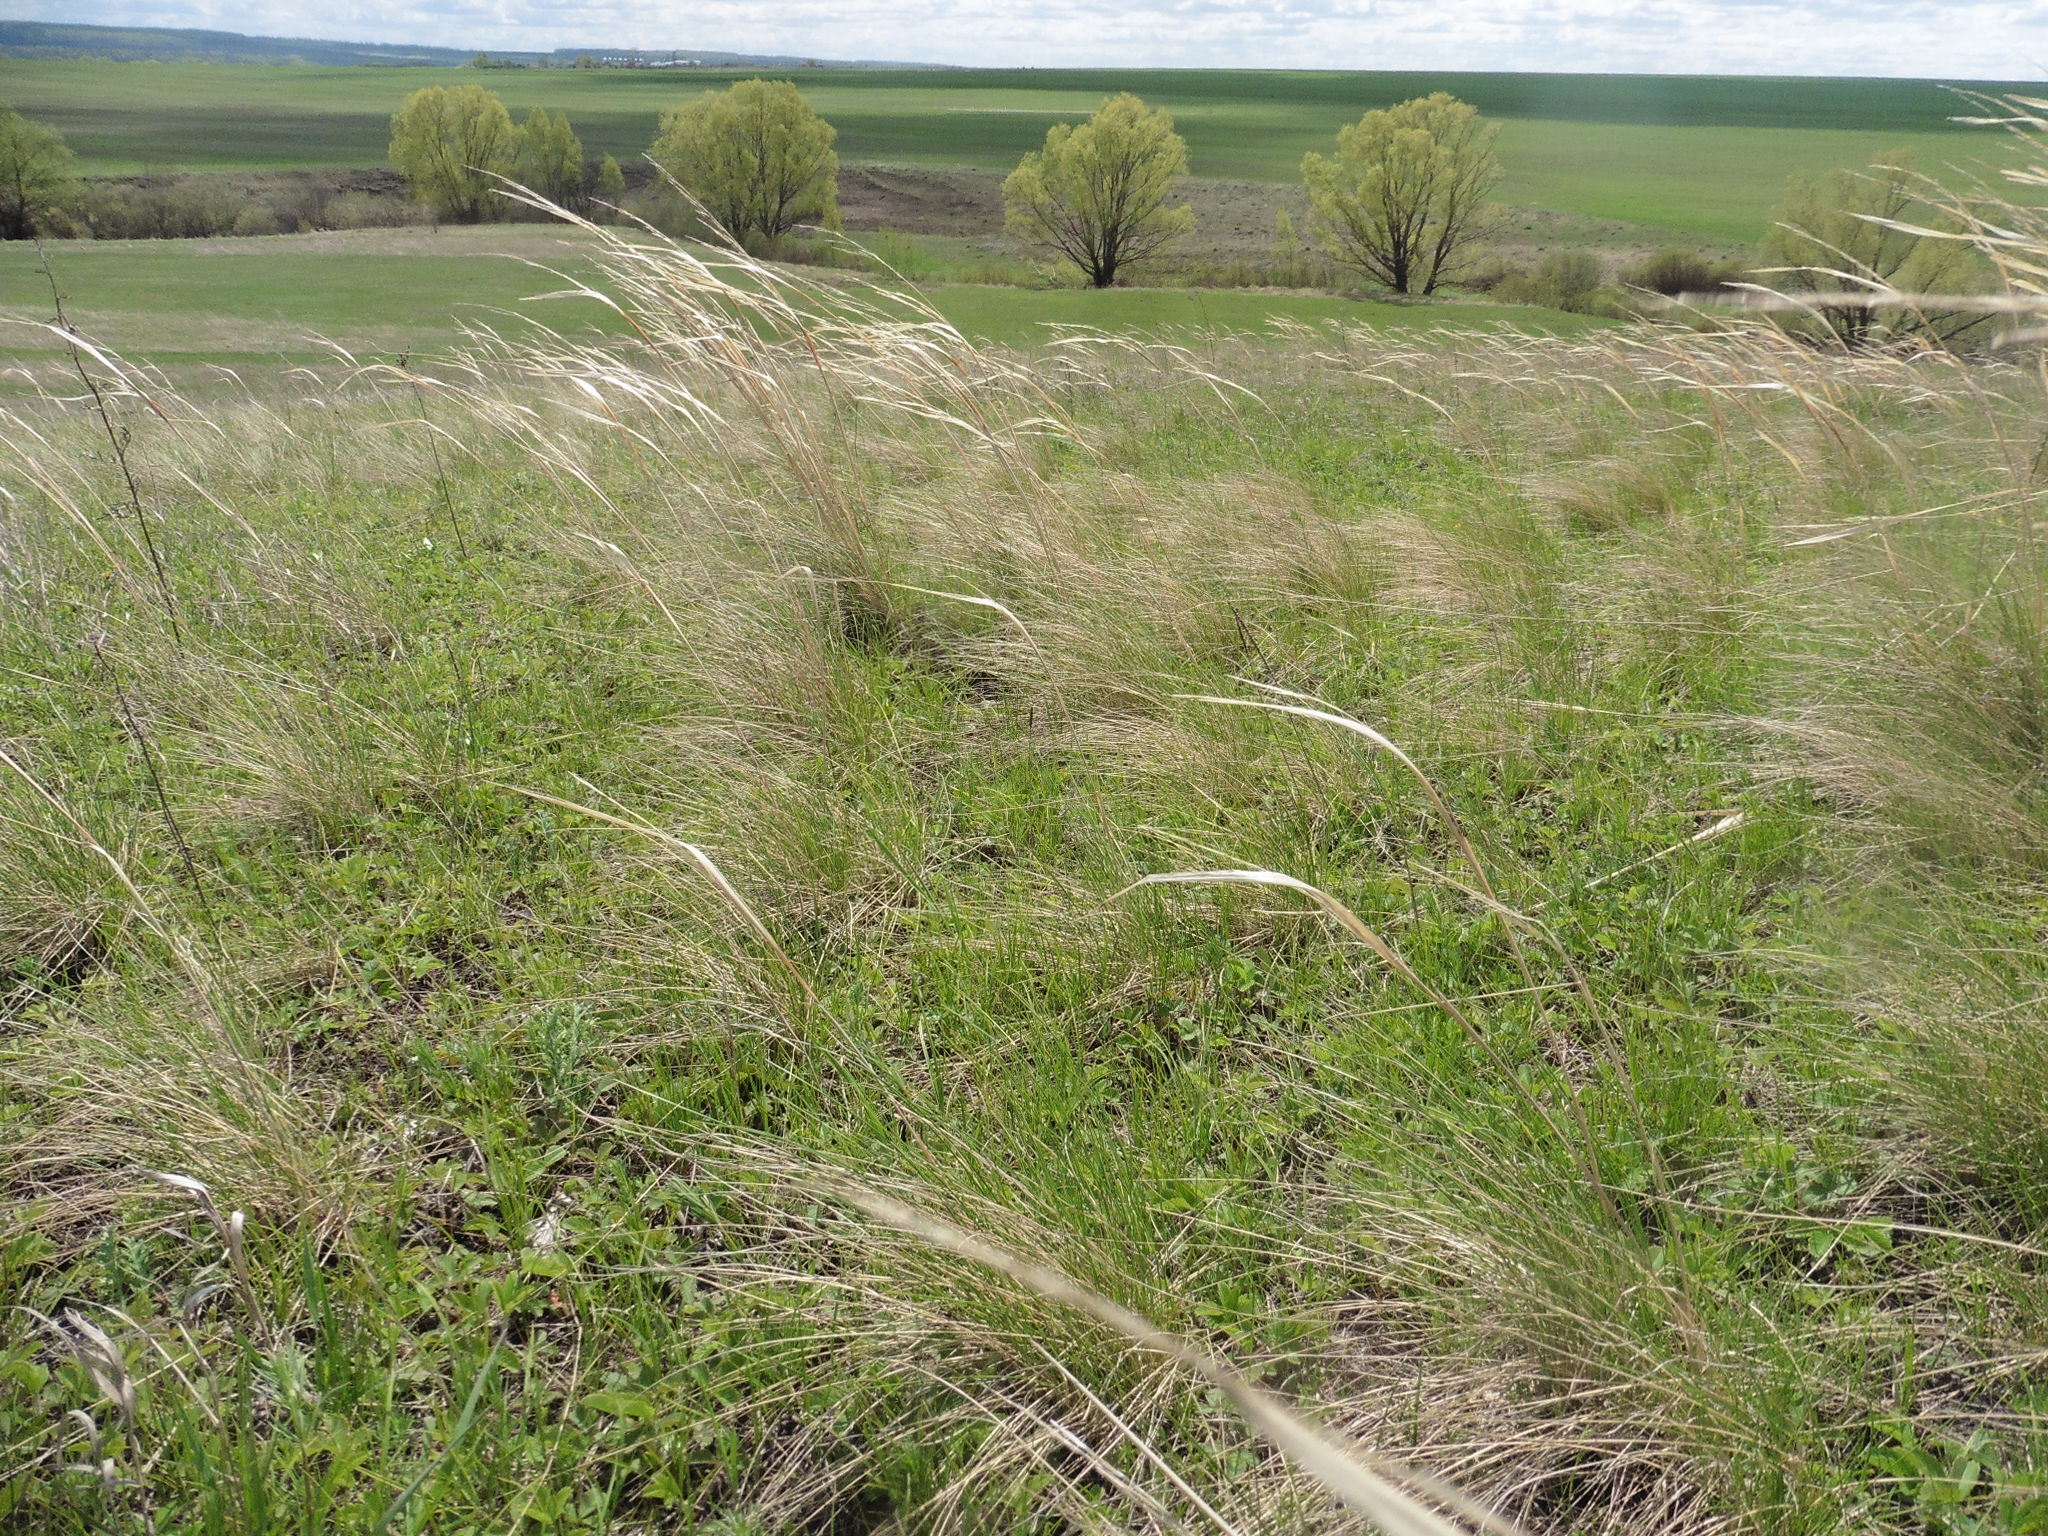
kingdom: Plantae
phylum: Tracheophyta
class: Liliopsida
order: Poales
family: Poaceae
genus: Stipa
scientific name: Stipa capillata
